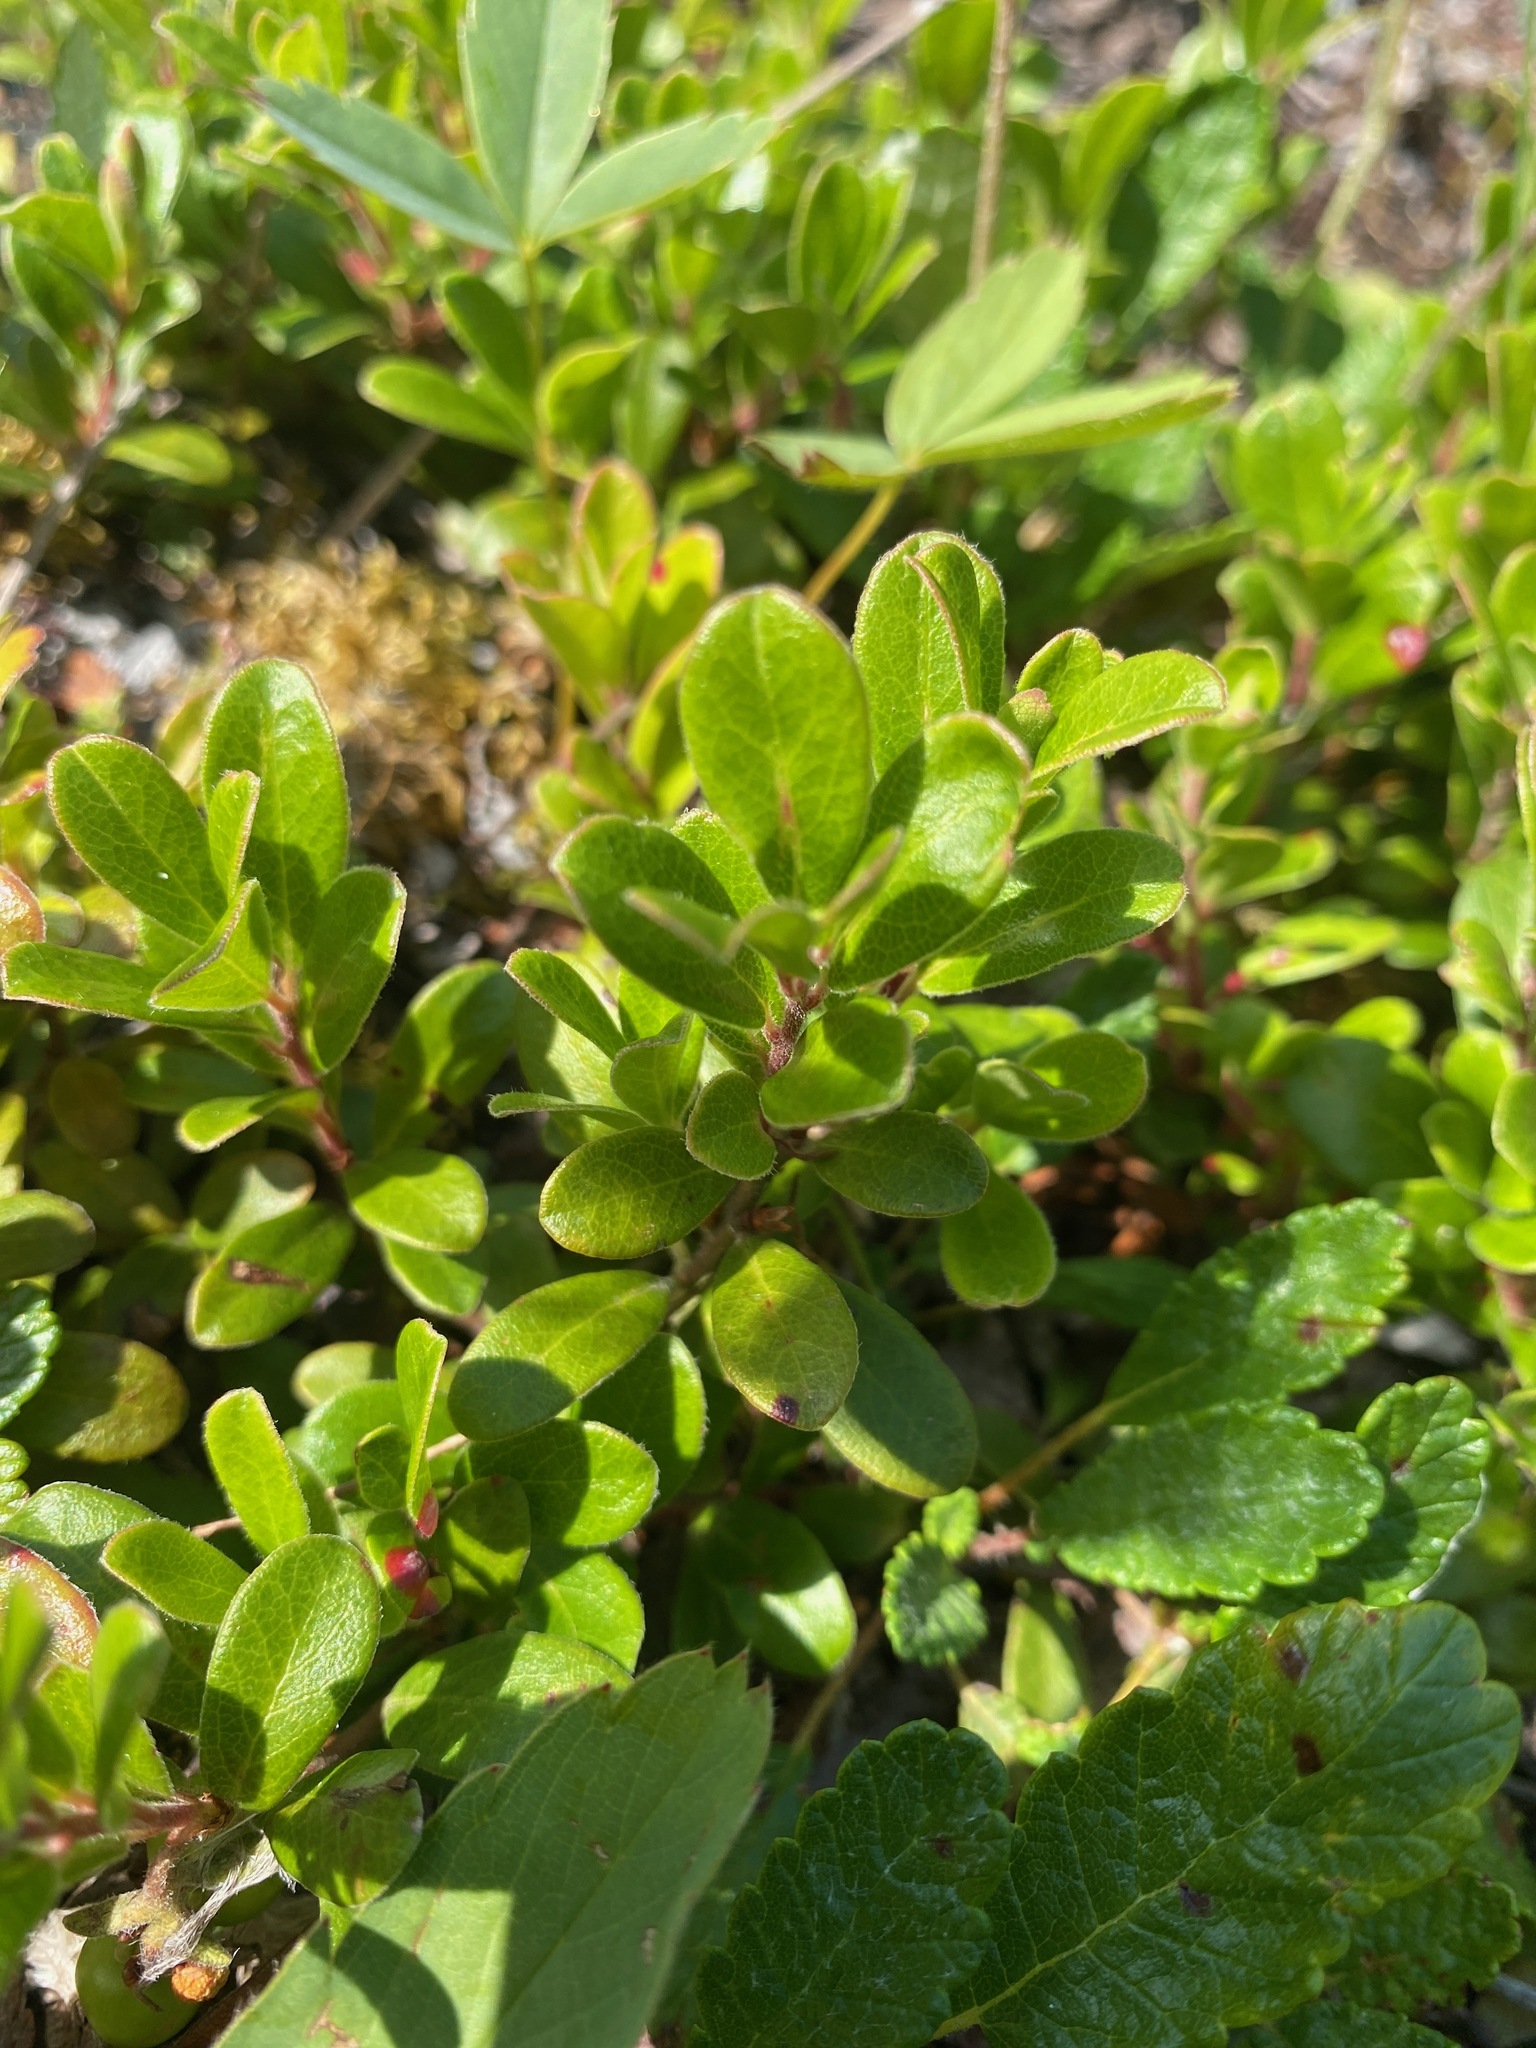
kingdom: Plantae
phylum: Tracheophyta
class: Magnoliopsida
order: Ericales
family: Ericaceae
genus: Arctostaphylos
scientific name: Arctostaphylos uva-ursi
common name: Bearberry
